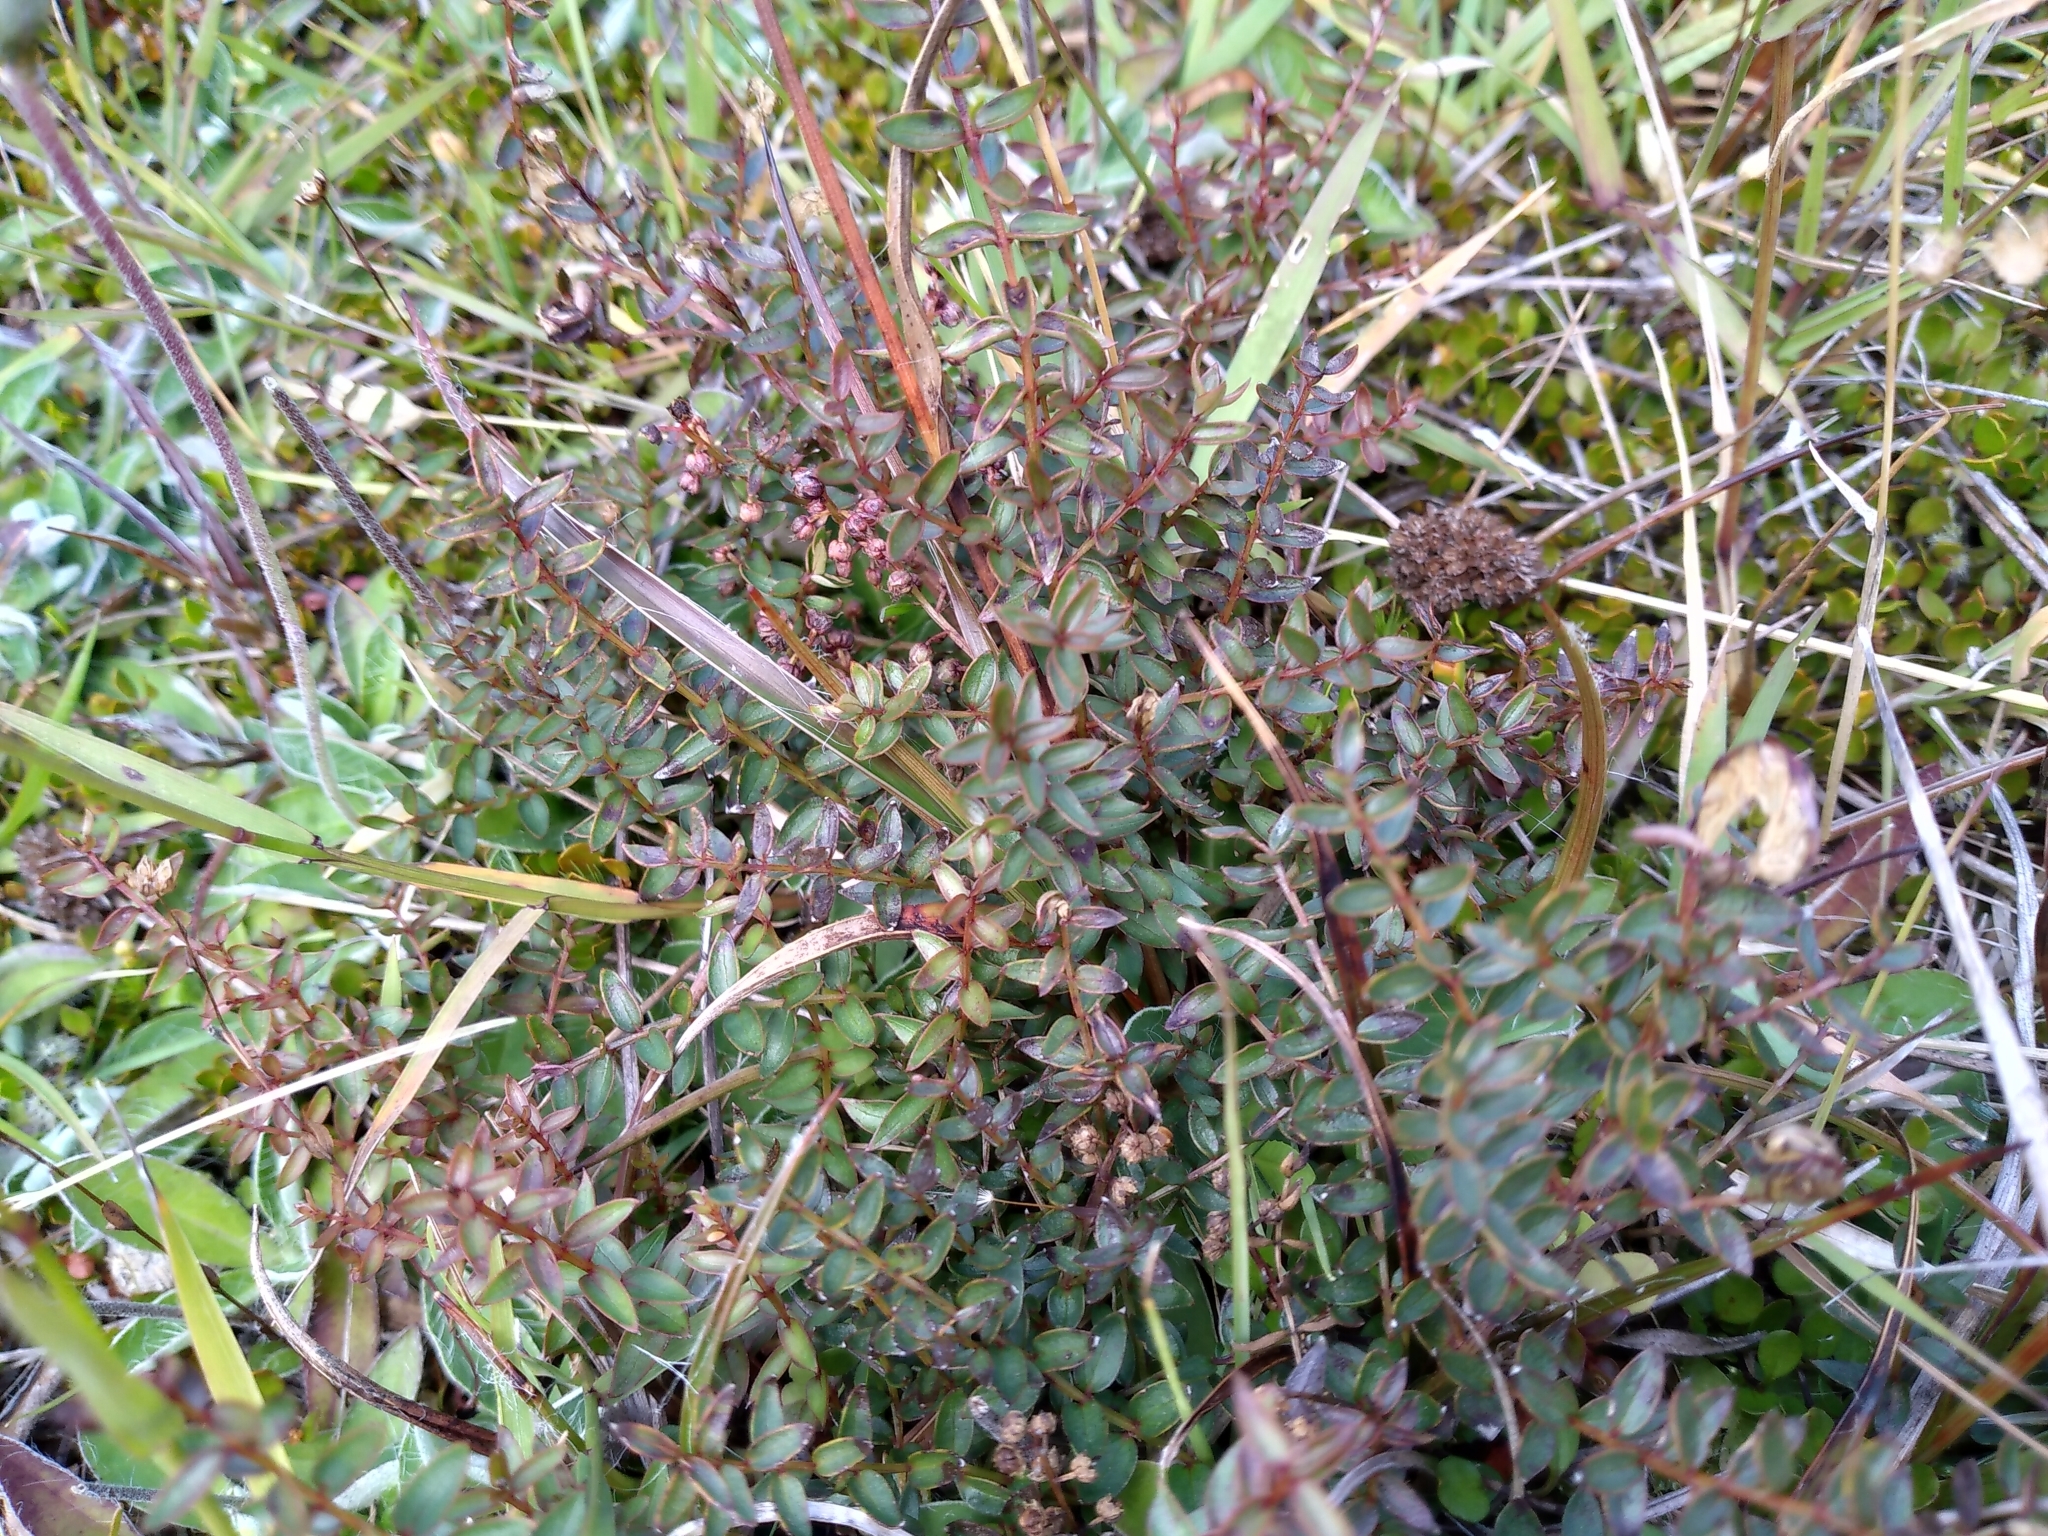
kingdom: Plantae
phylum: Tracheophyta
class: Magnoliopsida
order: Cucurbitales
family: Coriariaceae
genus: Coriaria
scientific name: Coriaria plumosa
